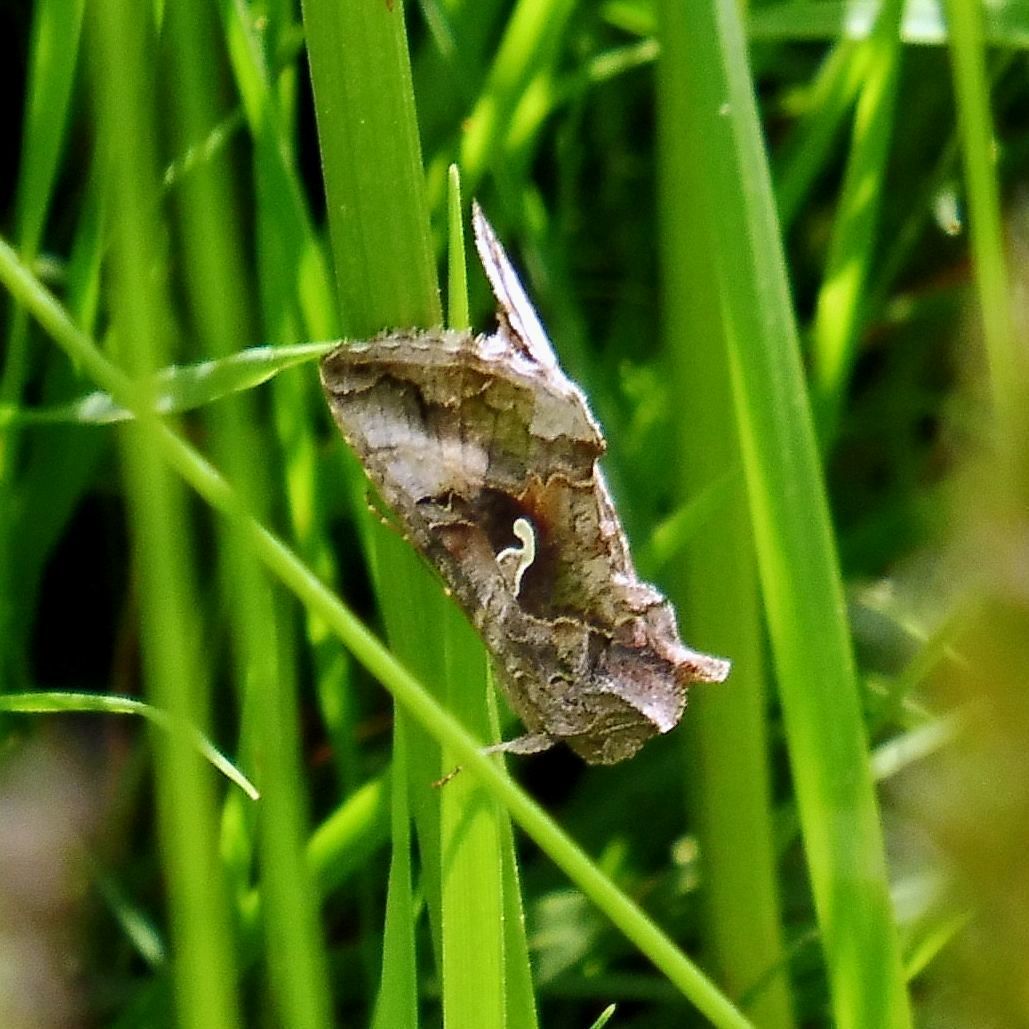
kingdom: Animalia
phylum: Arthropoda
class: Insecta
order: Lepidoptera
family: Noctuidae
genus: Autographa
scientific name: Autographa gamma
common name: Silver y
